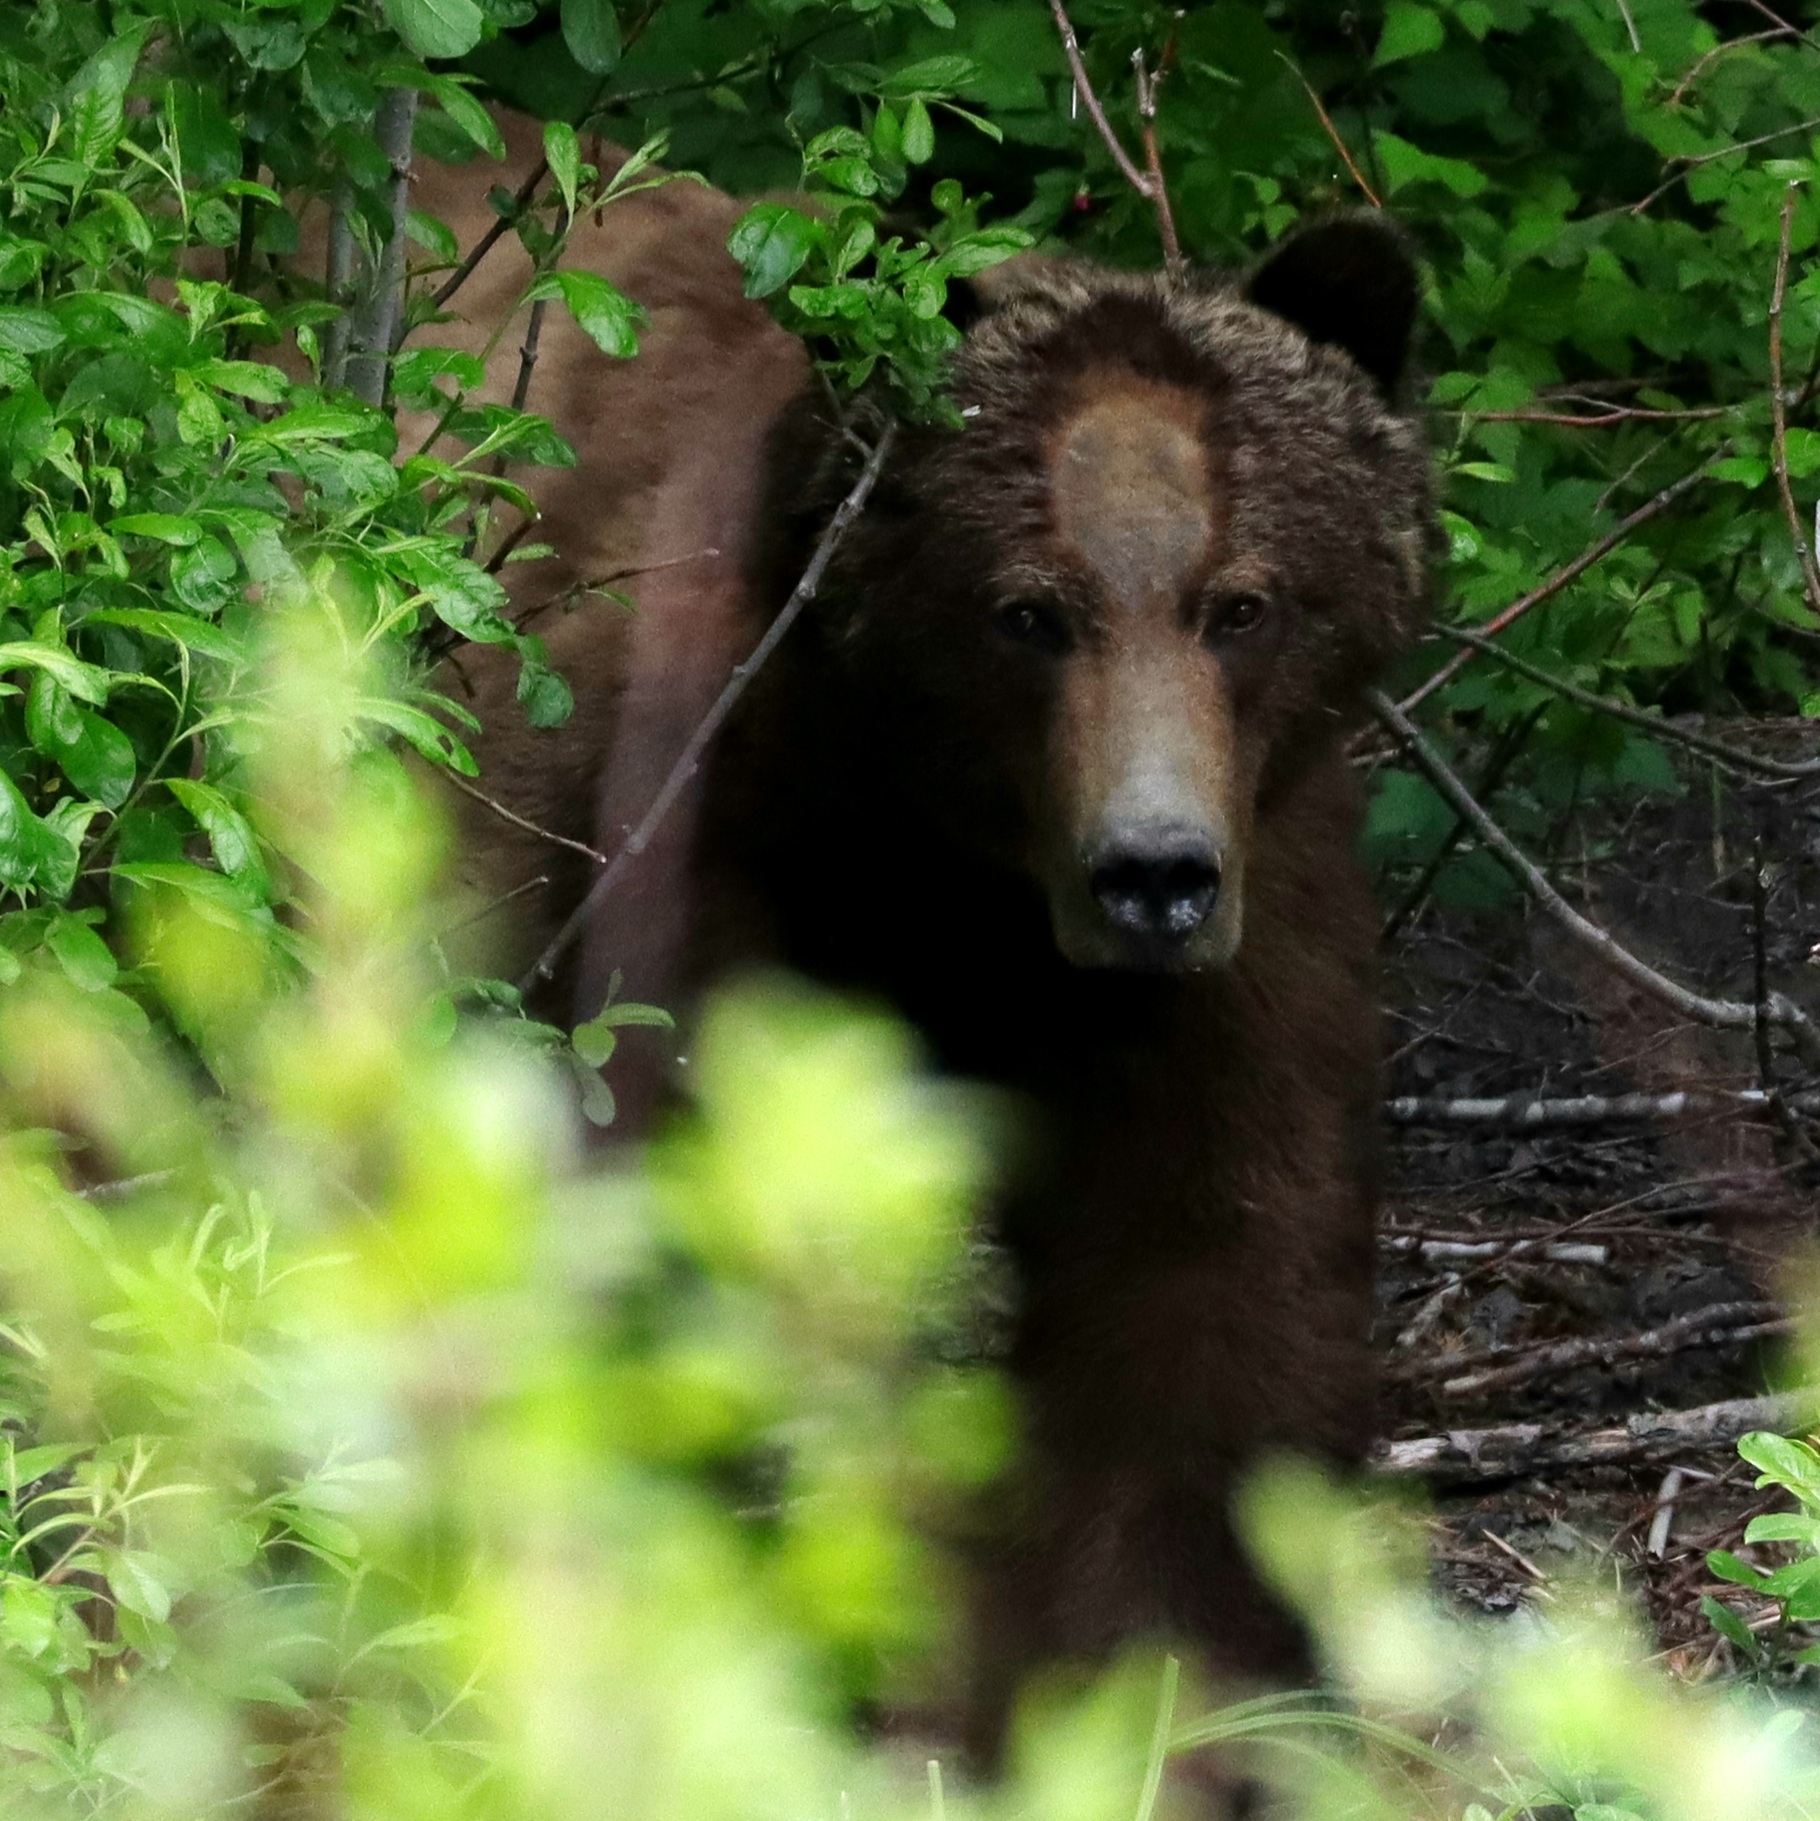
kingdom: Animalia
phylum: Chordata
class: Mammalia
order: Carnivora
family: Ursidae
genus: Ursus
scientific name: Ursus arctos
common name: Brown bear
